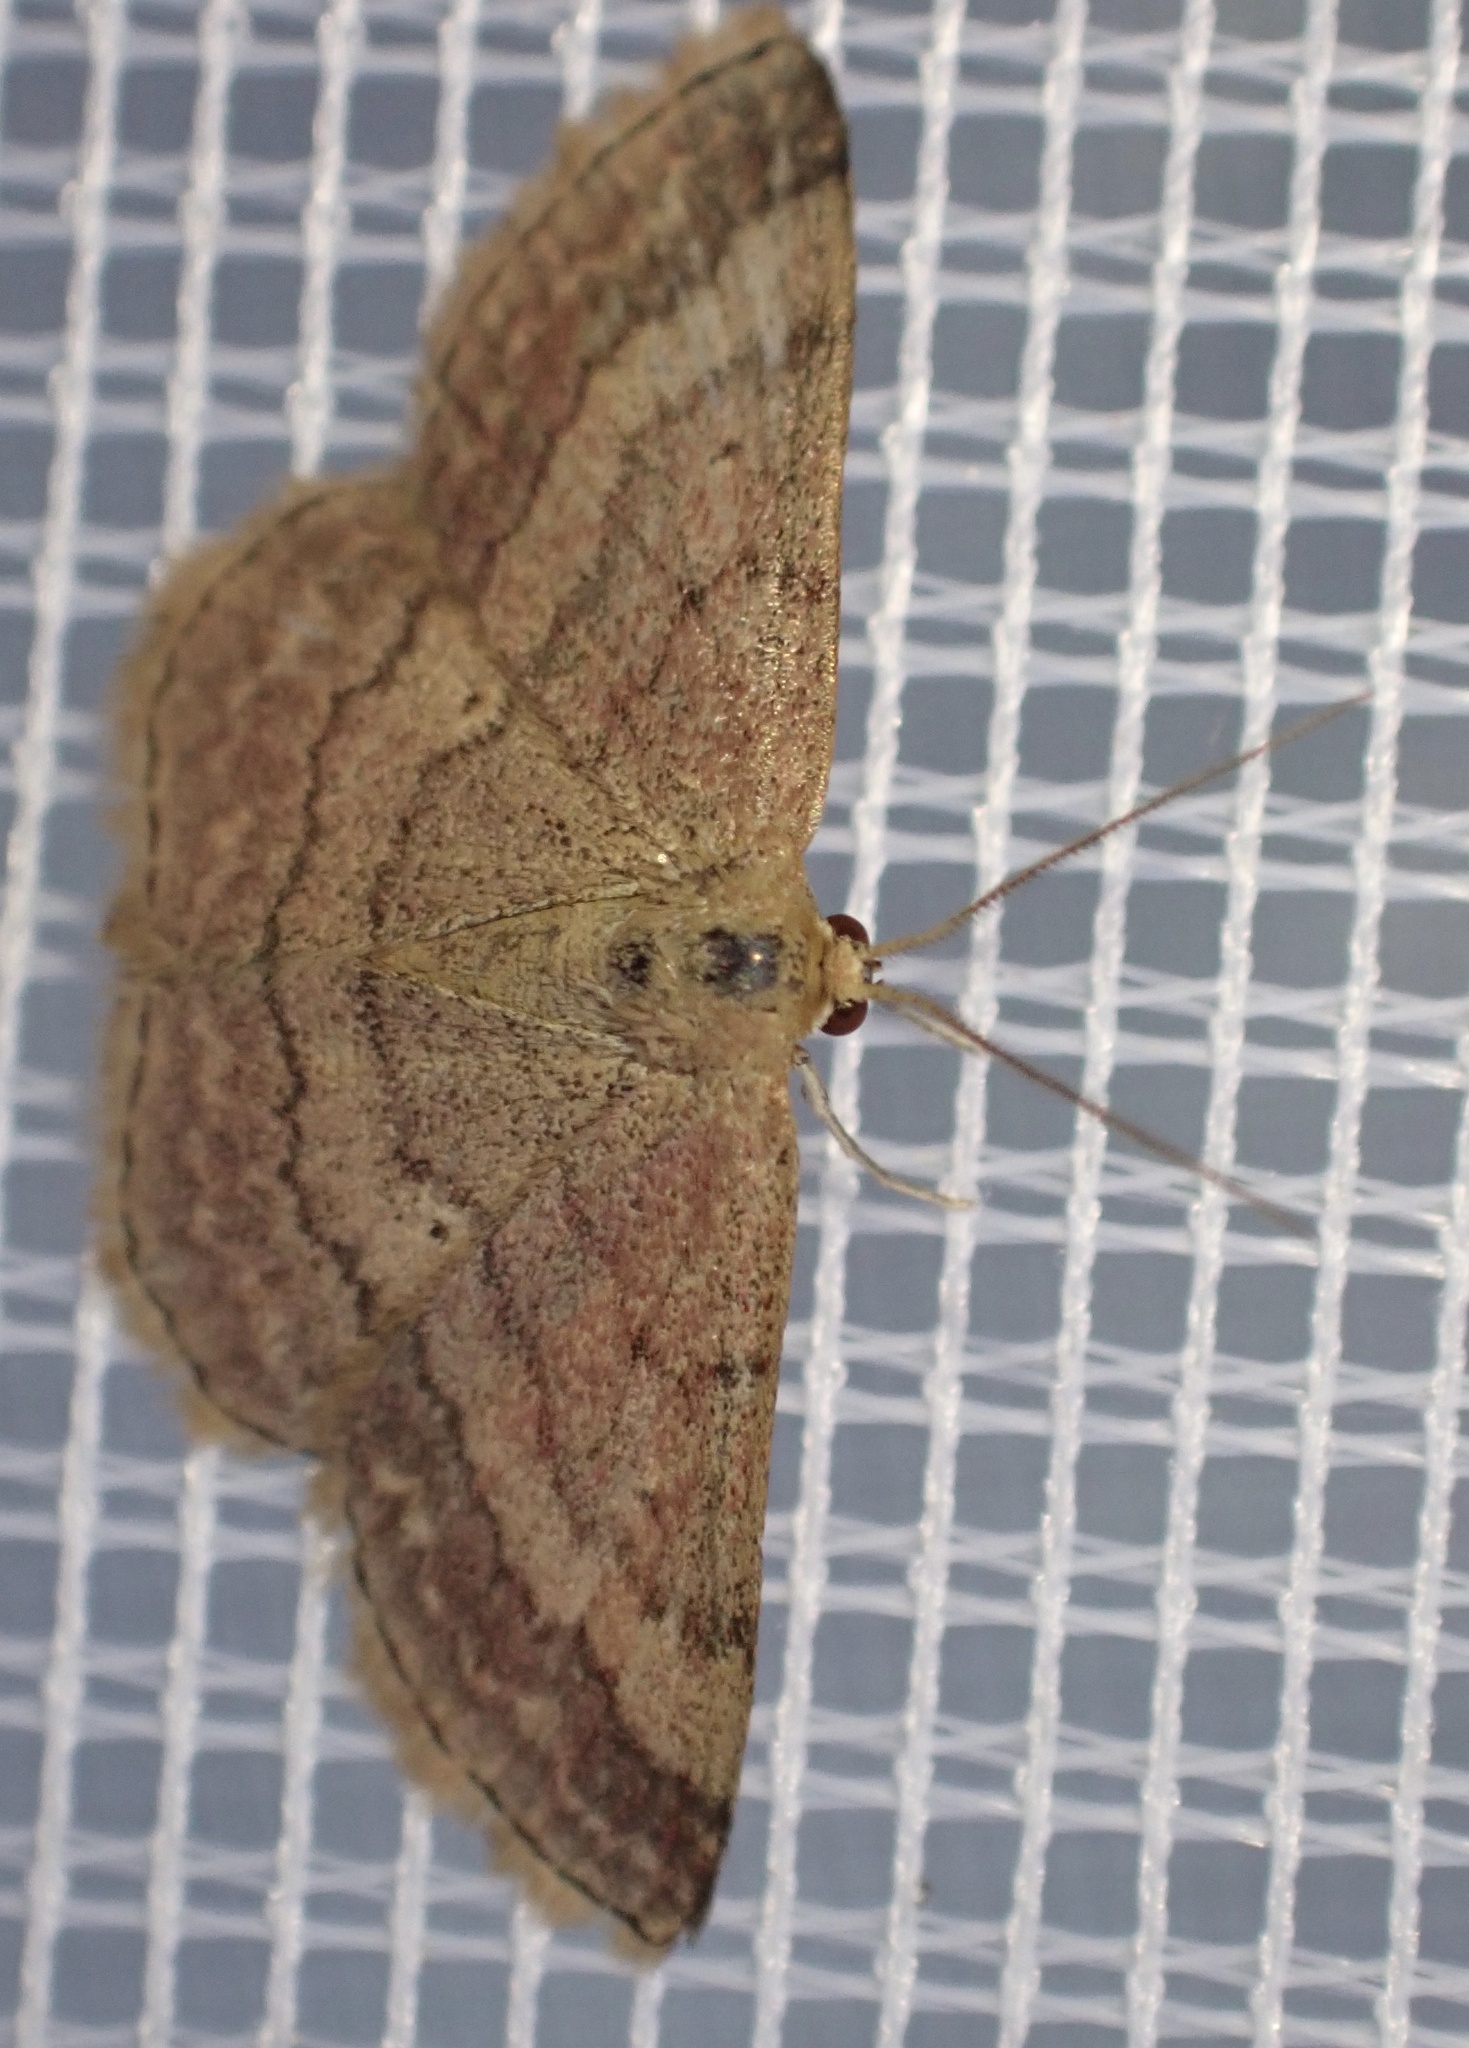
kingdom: Animalia
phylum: Arthropoda
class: Insecta
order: Lepidoptera
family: Geometridae
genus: Scopula
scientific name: Scopula rubiginata
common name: Tawny wave
